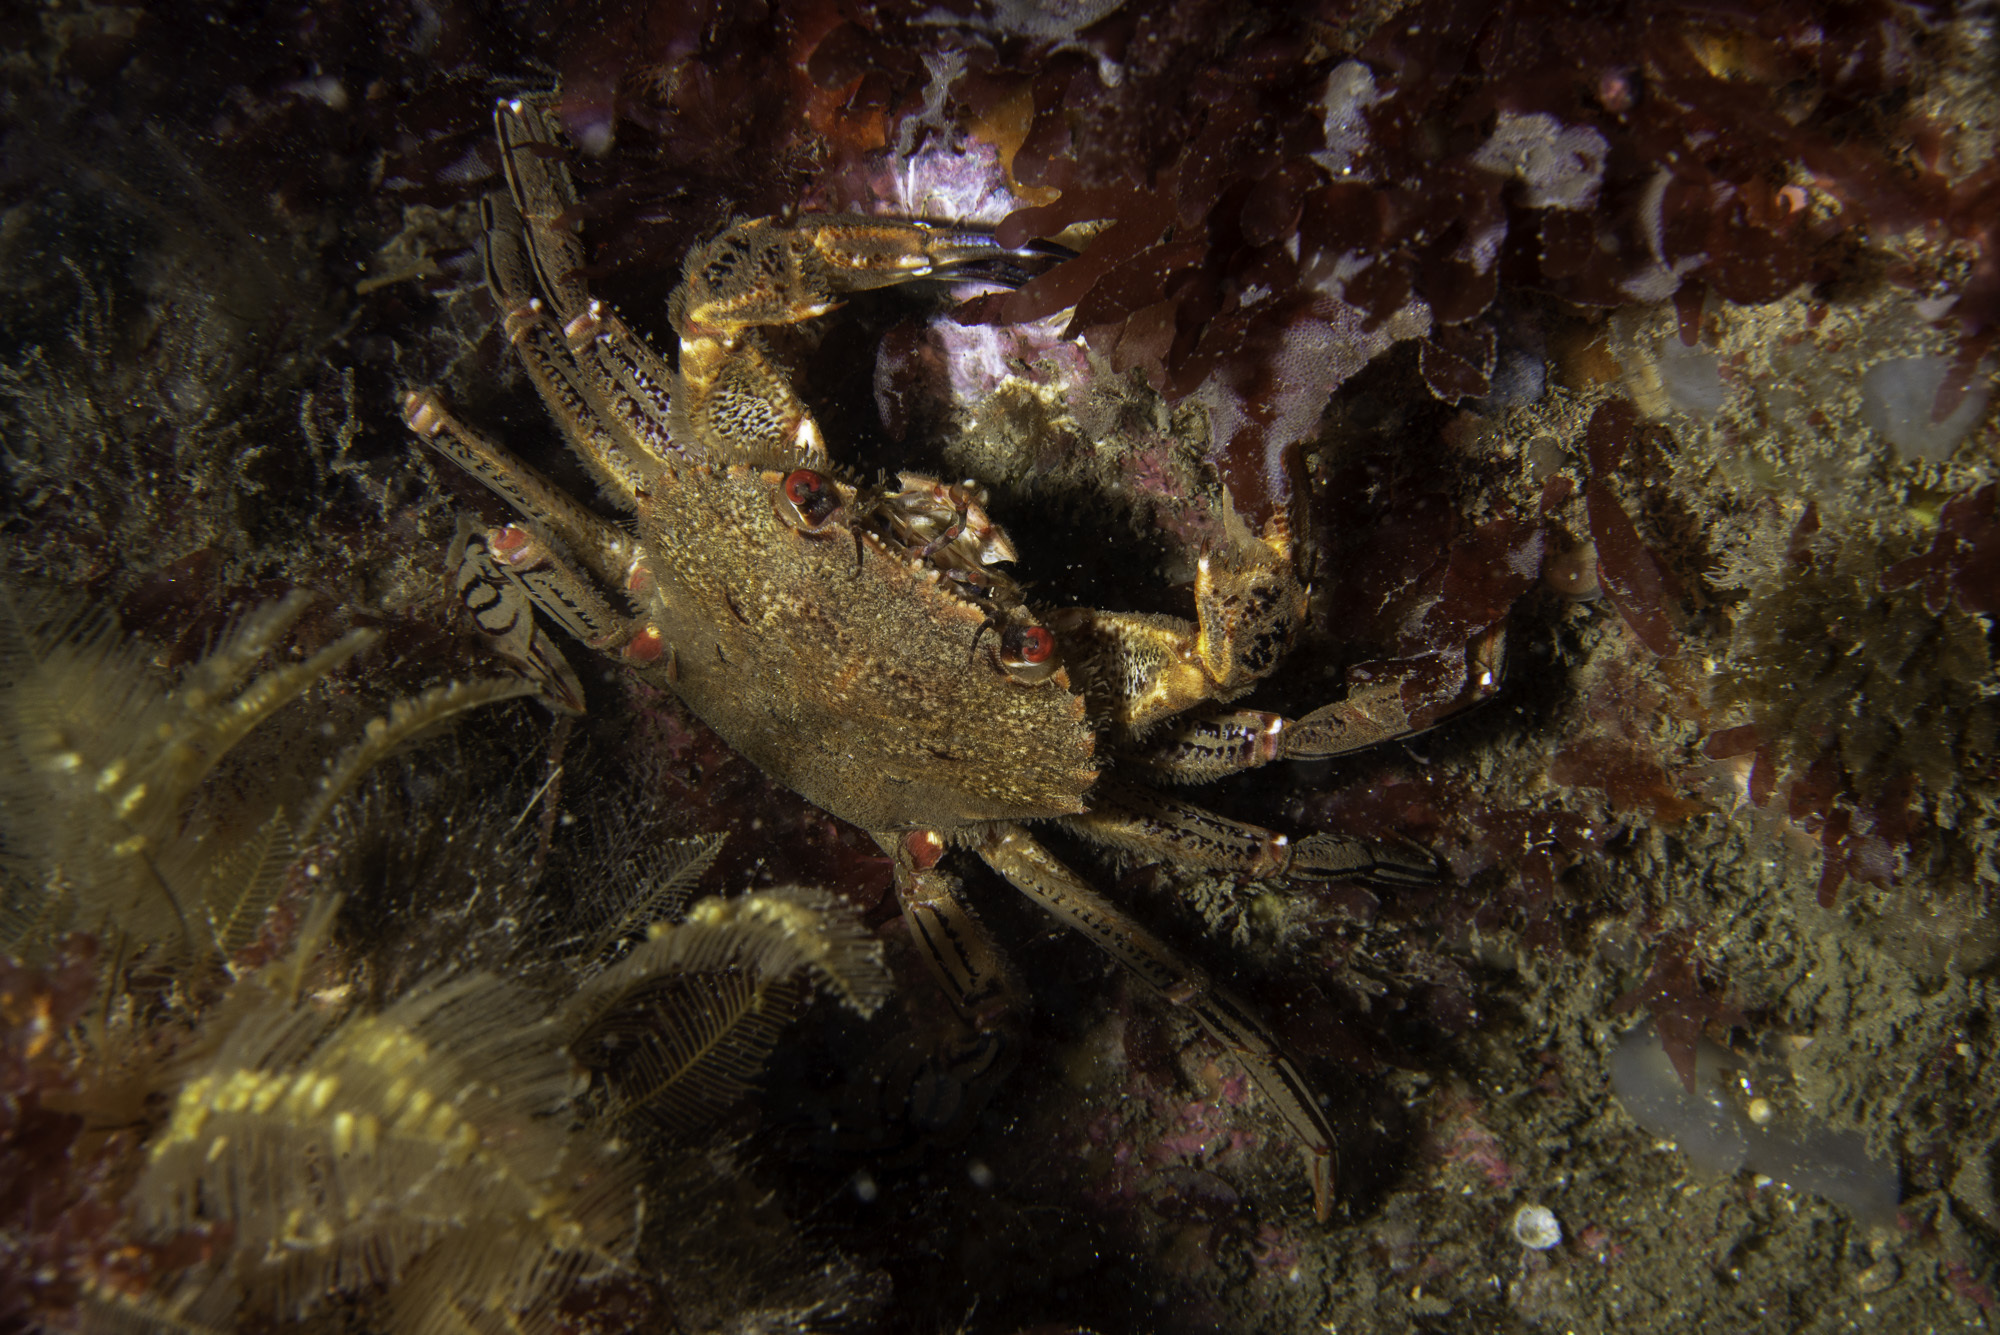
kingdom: Animalia
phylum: Arthropoda
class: Malacostraca
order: Decapoda
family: Polybiidae
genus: Necora
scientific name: Necora puber
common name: Velvet swimming crab
